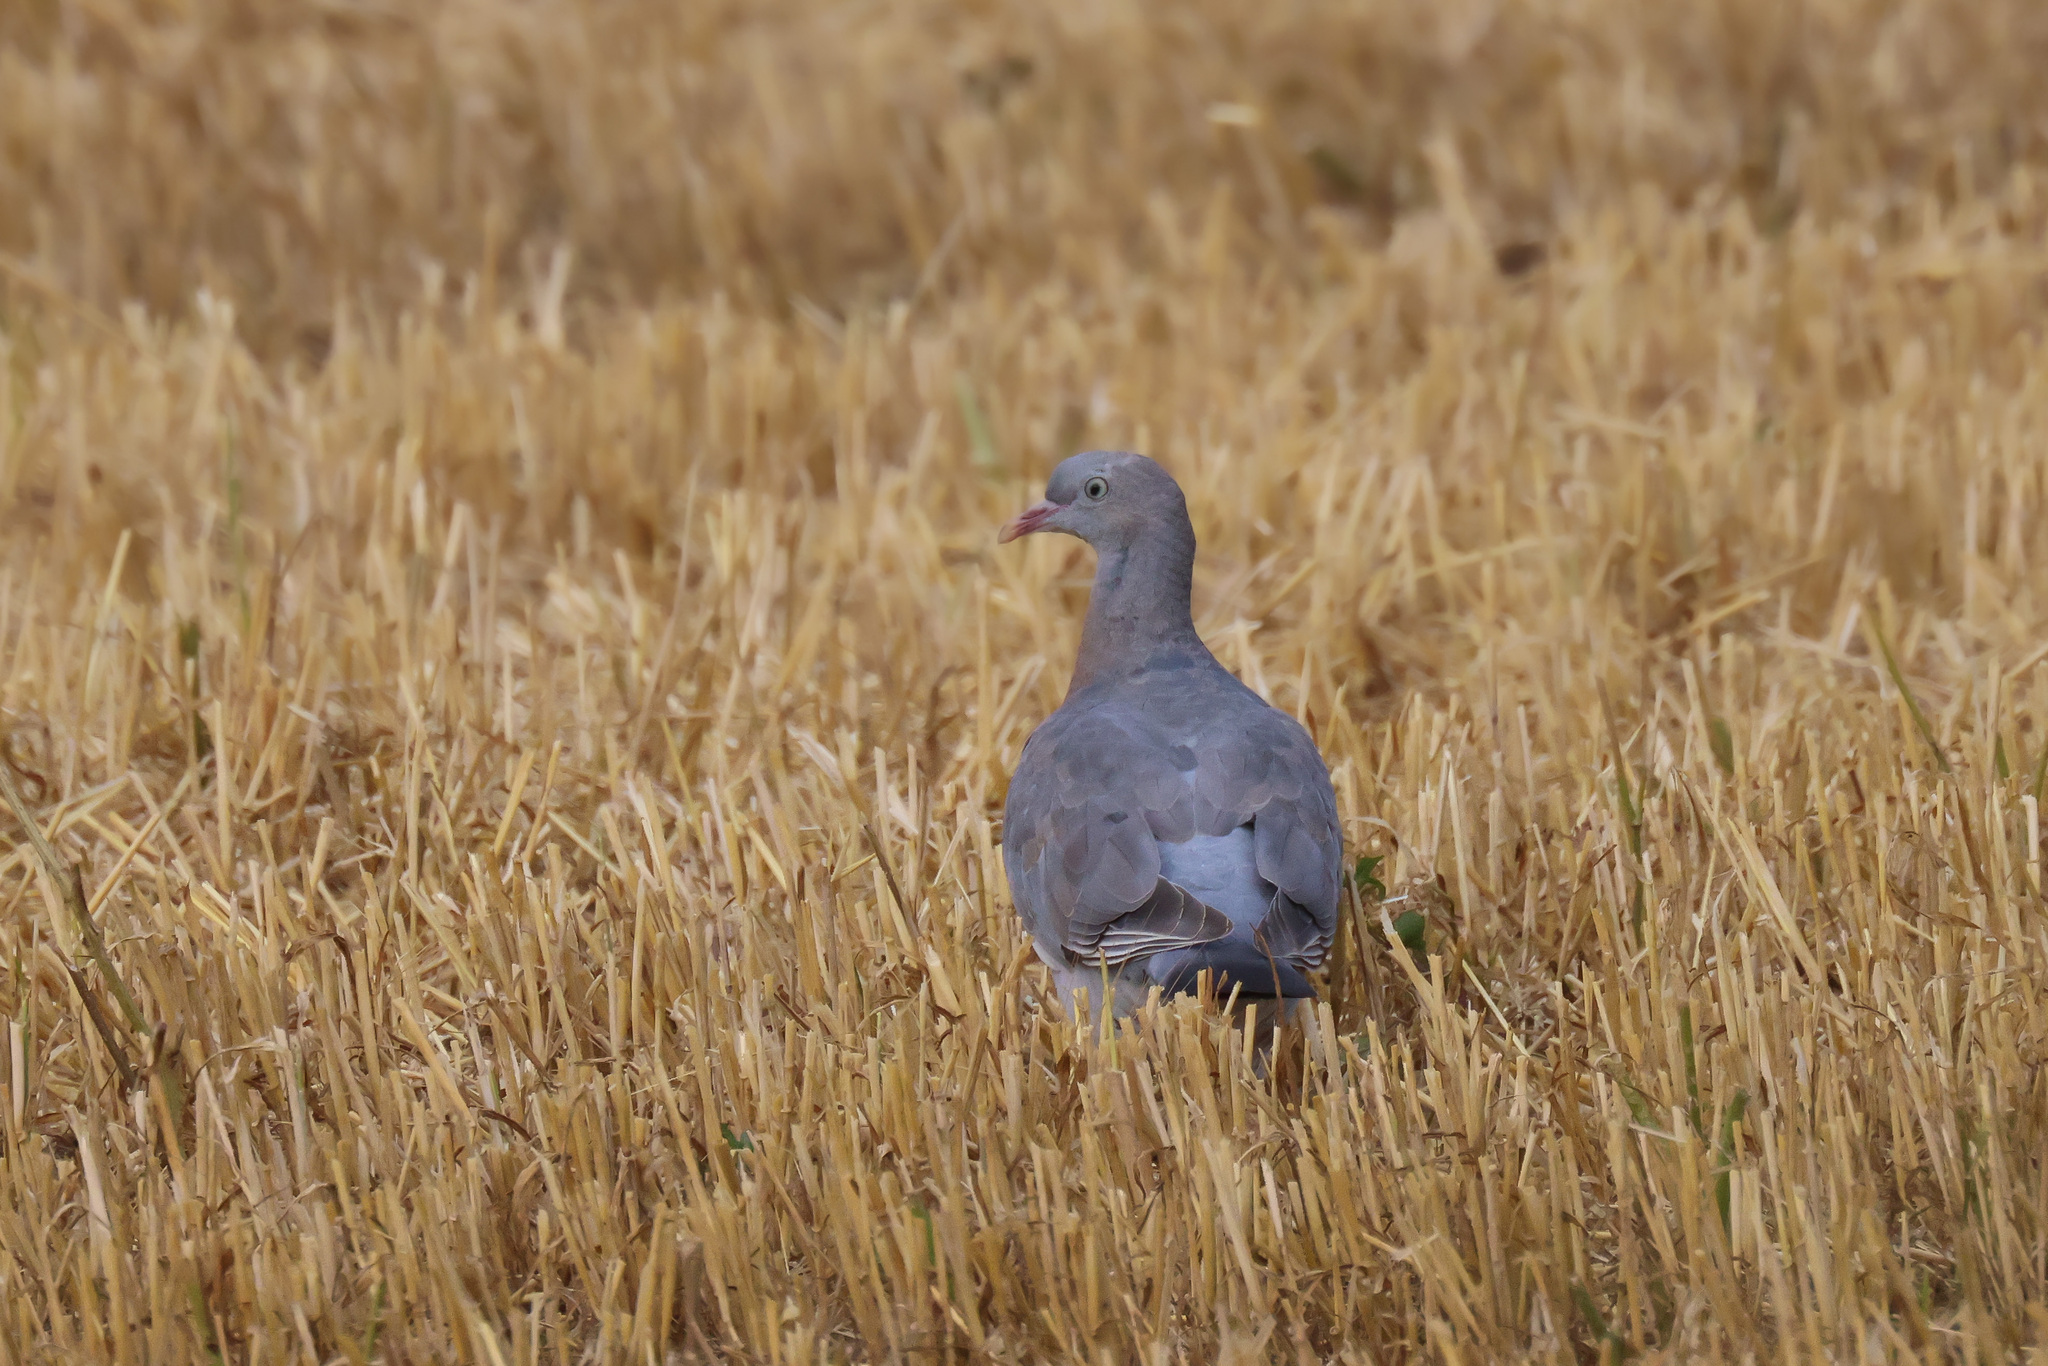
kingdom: Animalia
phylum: Chordata
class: Aves
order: Columbiformes
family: Columbidae
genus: Columba
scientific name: Columba palumbus
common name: Common wood pigeon
